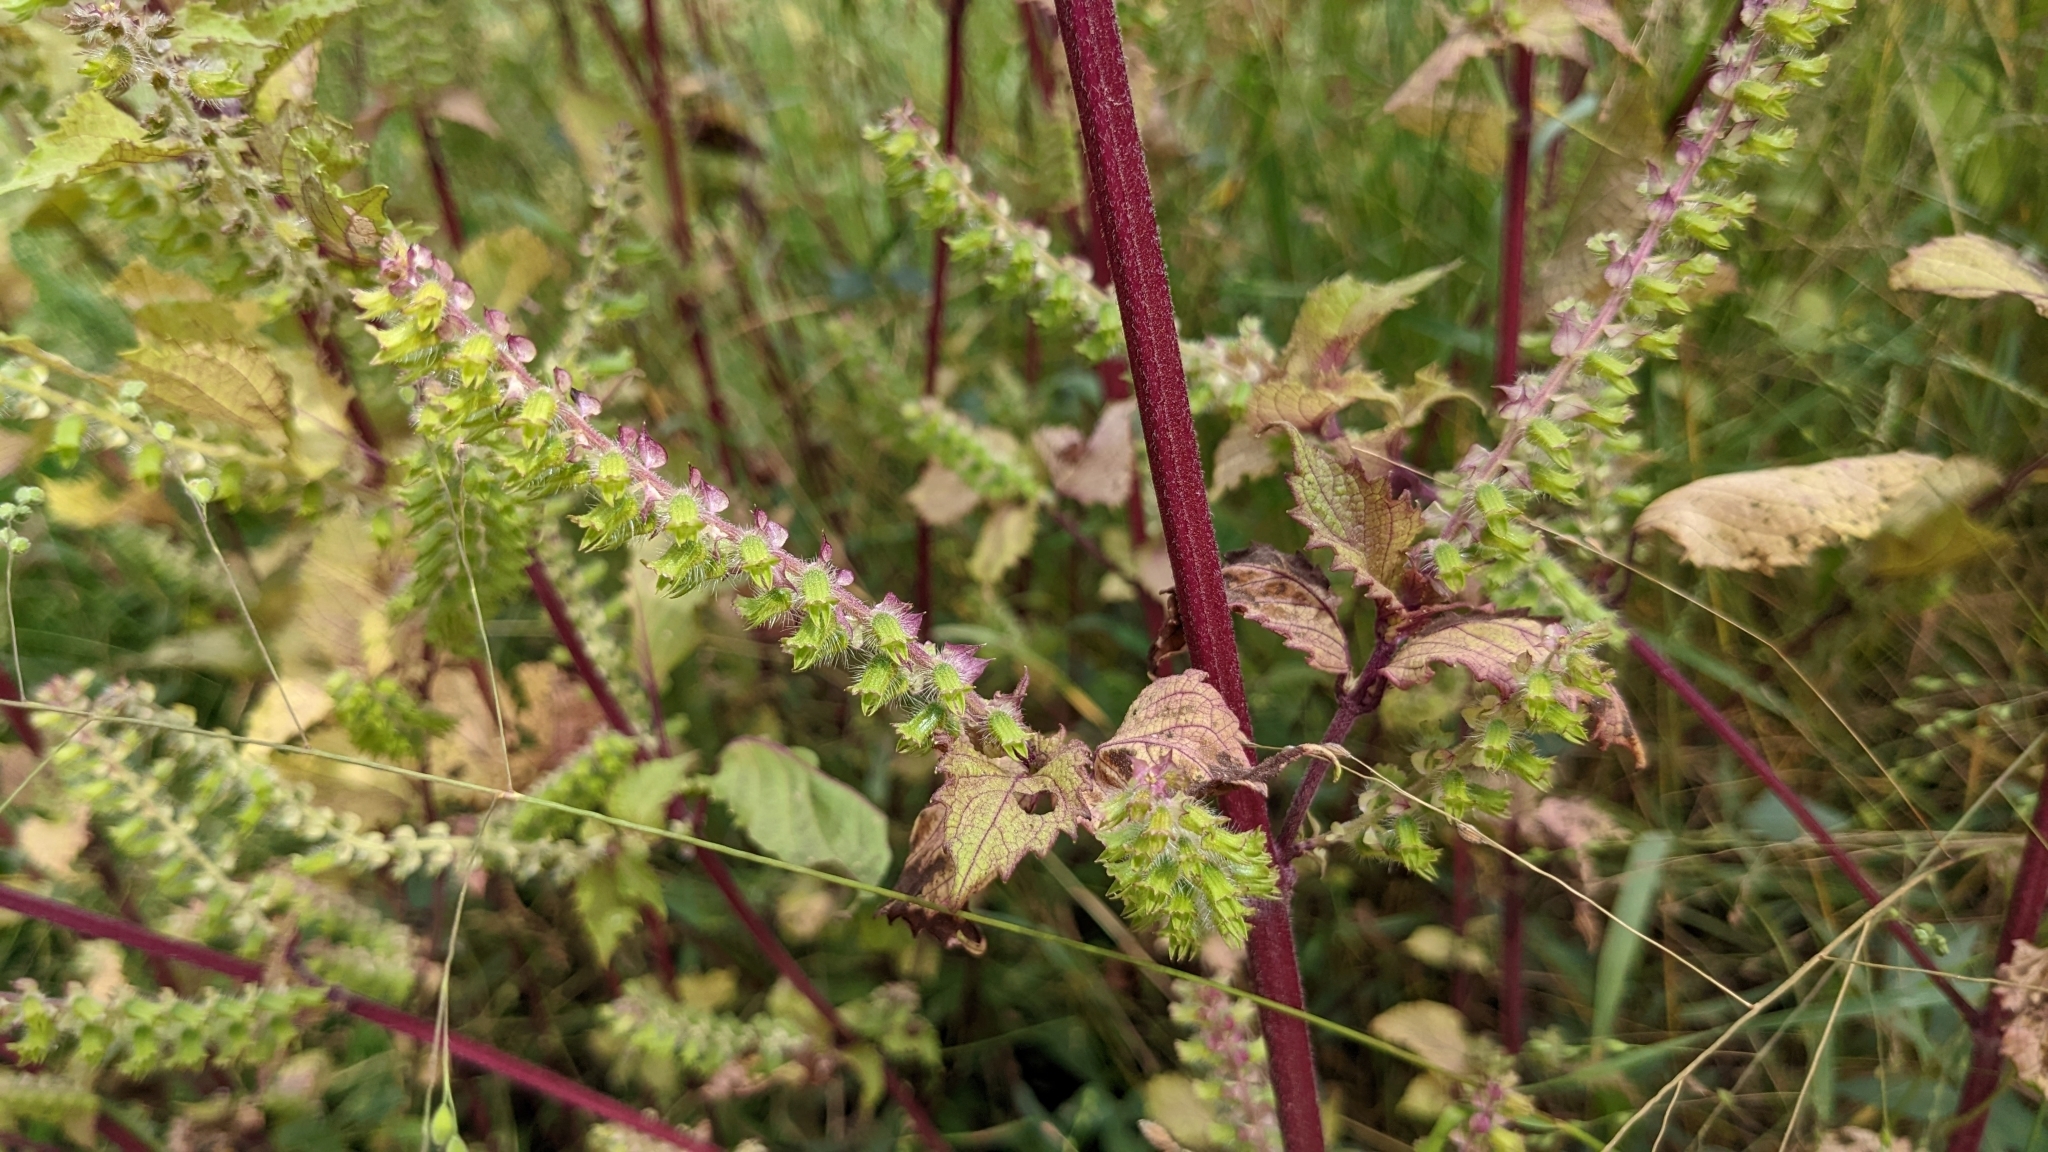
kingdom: Plantae
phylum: Tracheophyta
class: Magnoliopsida
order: Lamiales
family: Lamiaceae
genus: Perilla
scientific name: Perilla frutescens
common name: Perilla
